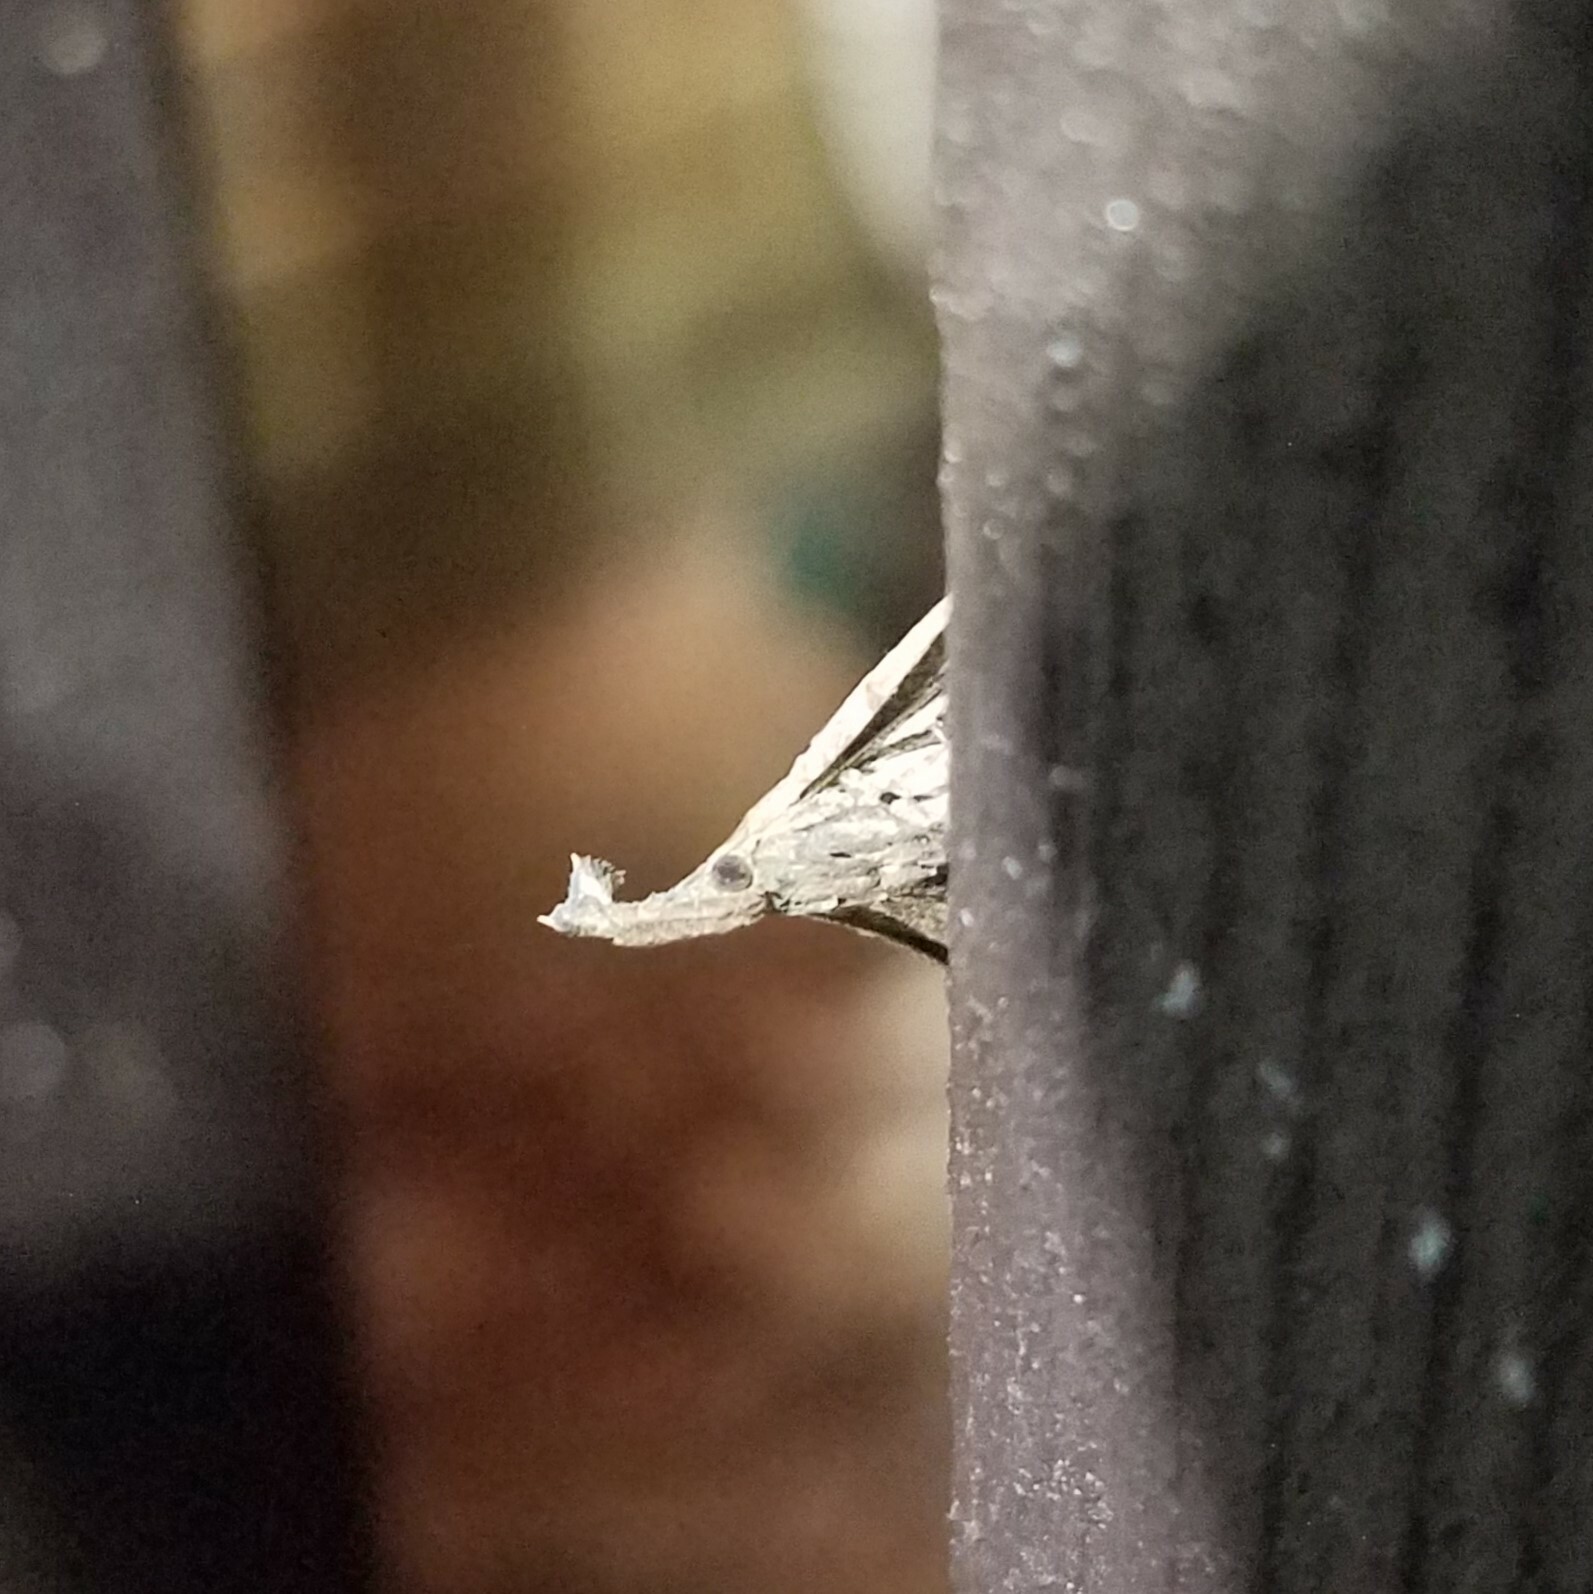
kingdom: Animalia
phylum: Arthropoda
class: Insecta
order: Lepidoptera
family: Erebidae
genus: Palthis
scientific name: Palthis asopialis
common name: Faint-spotted palthis moth
